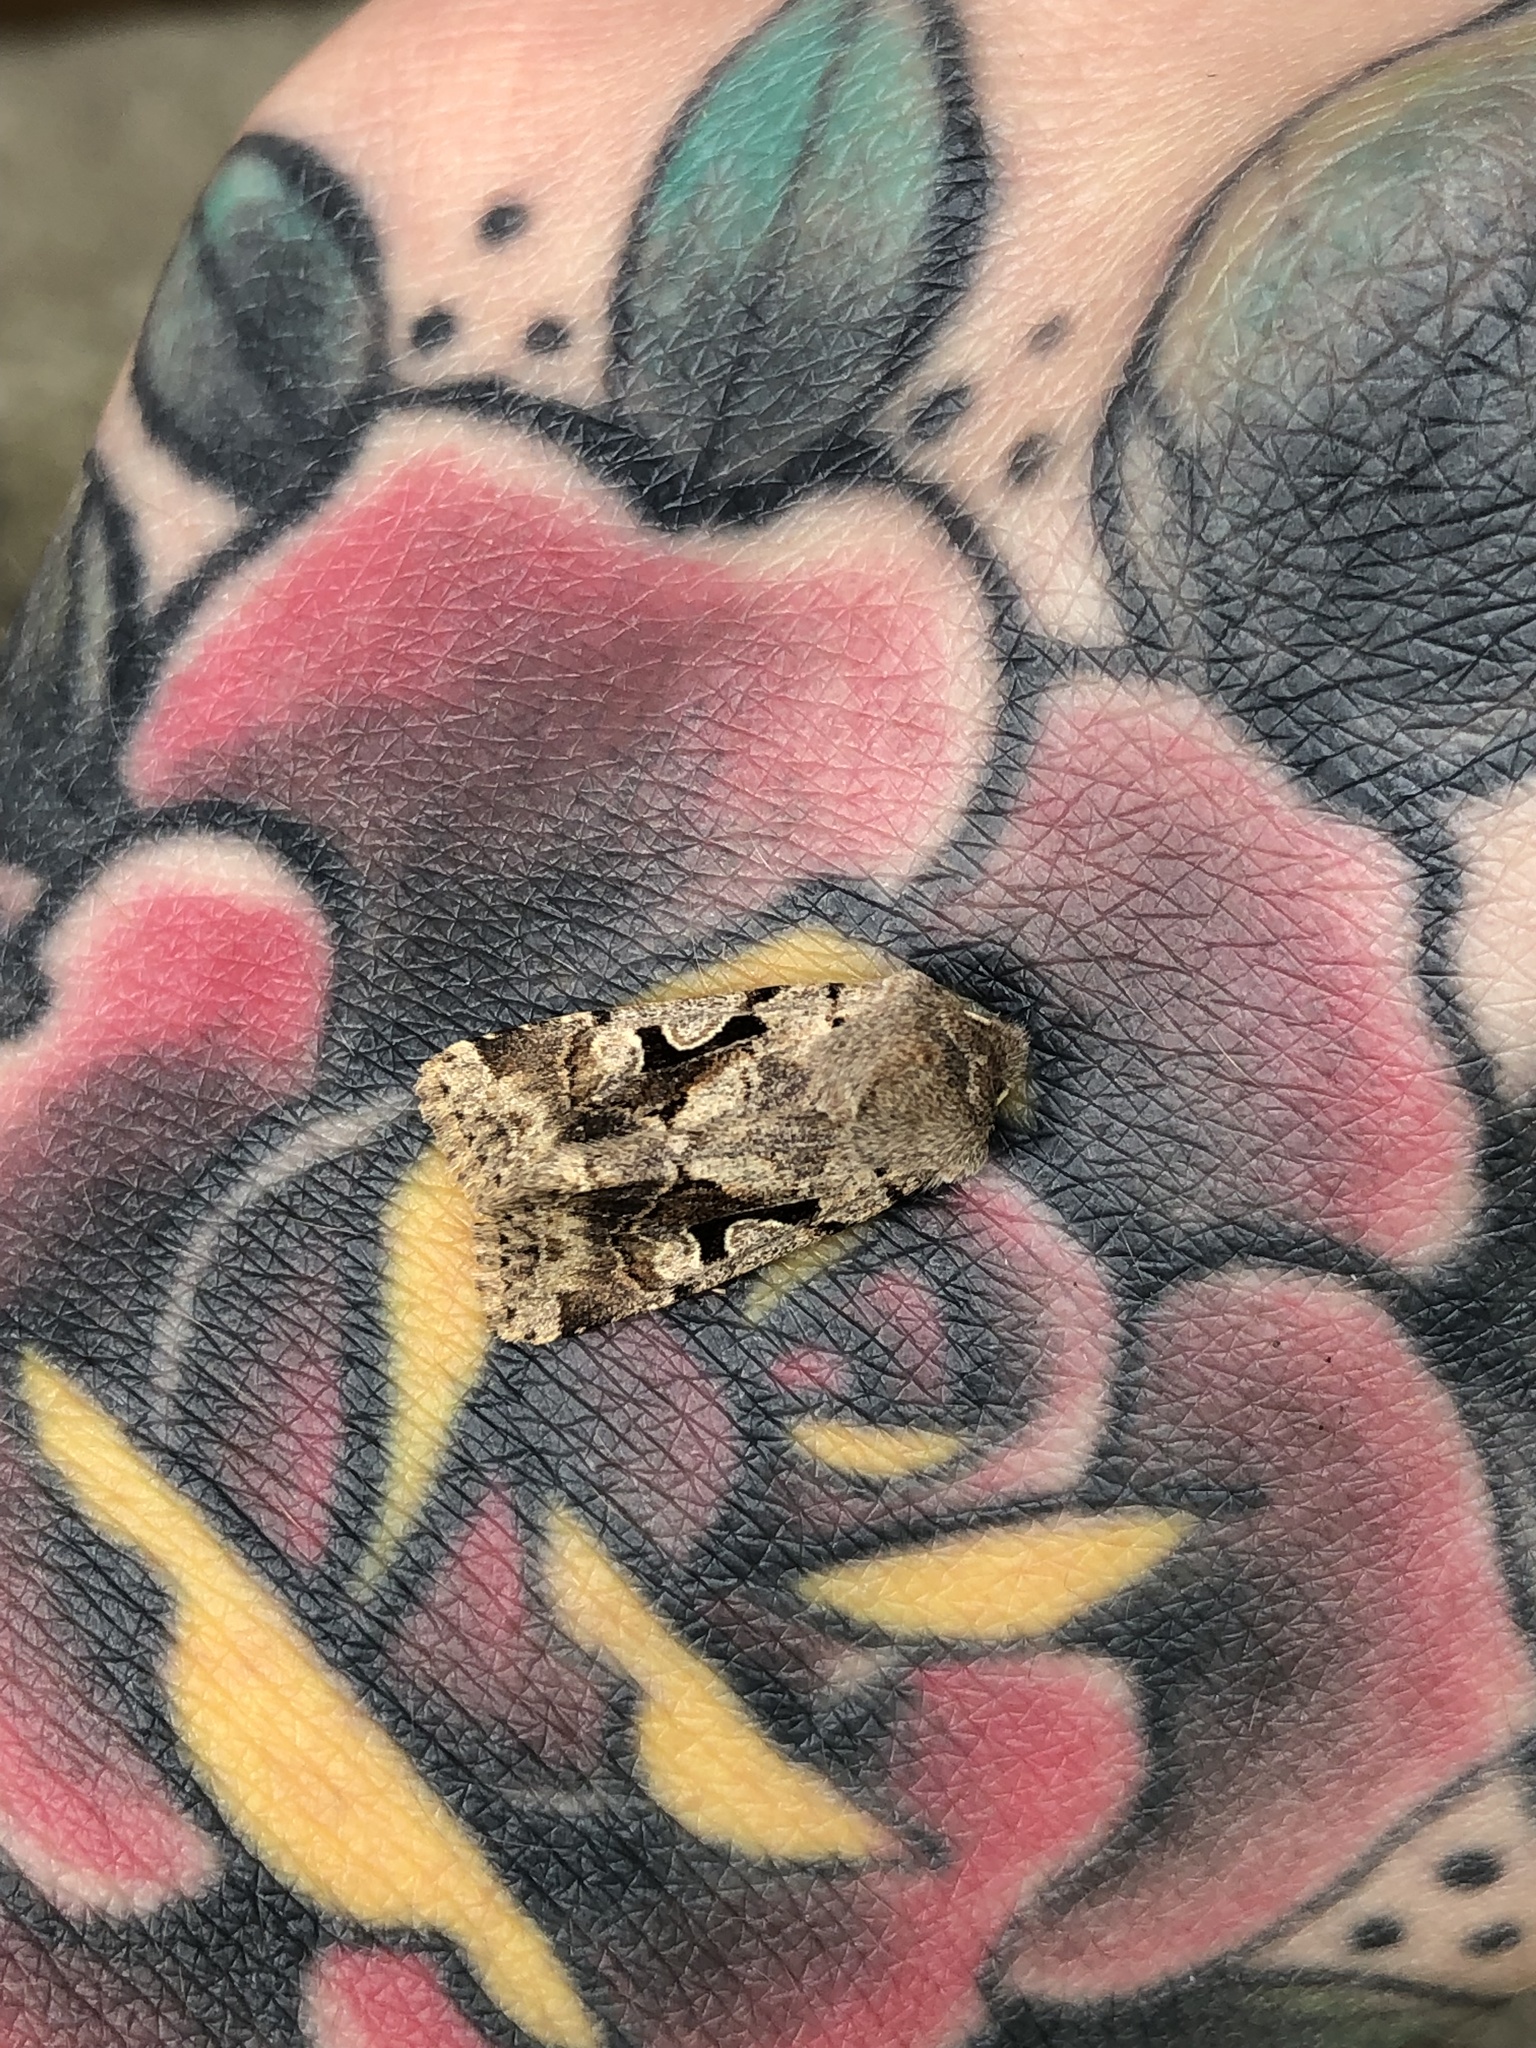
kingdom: Animalia
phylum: Arthropoda
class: Insecta
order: Lepidoptera
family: Noctuidae
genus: Orthosia
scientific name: Orthosia gothica
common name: Hebrew character
